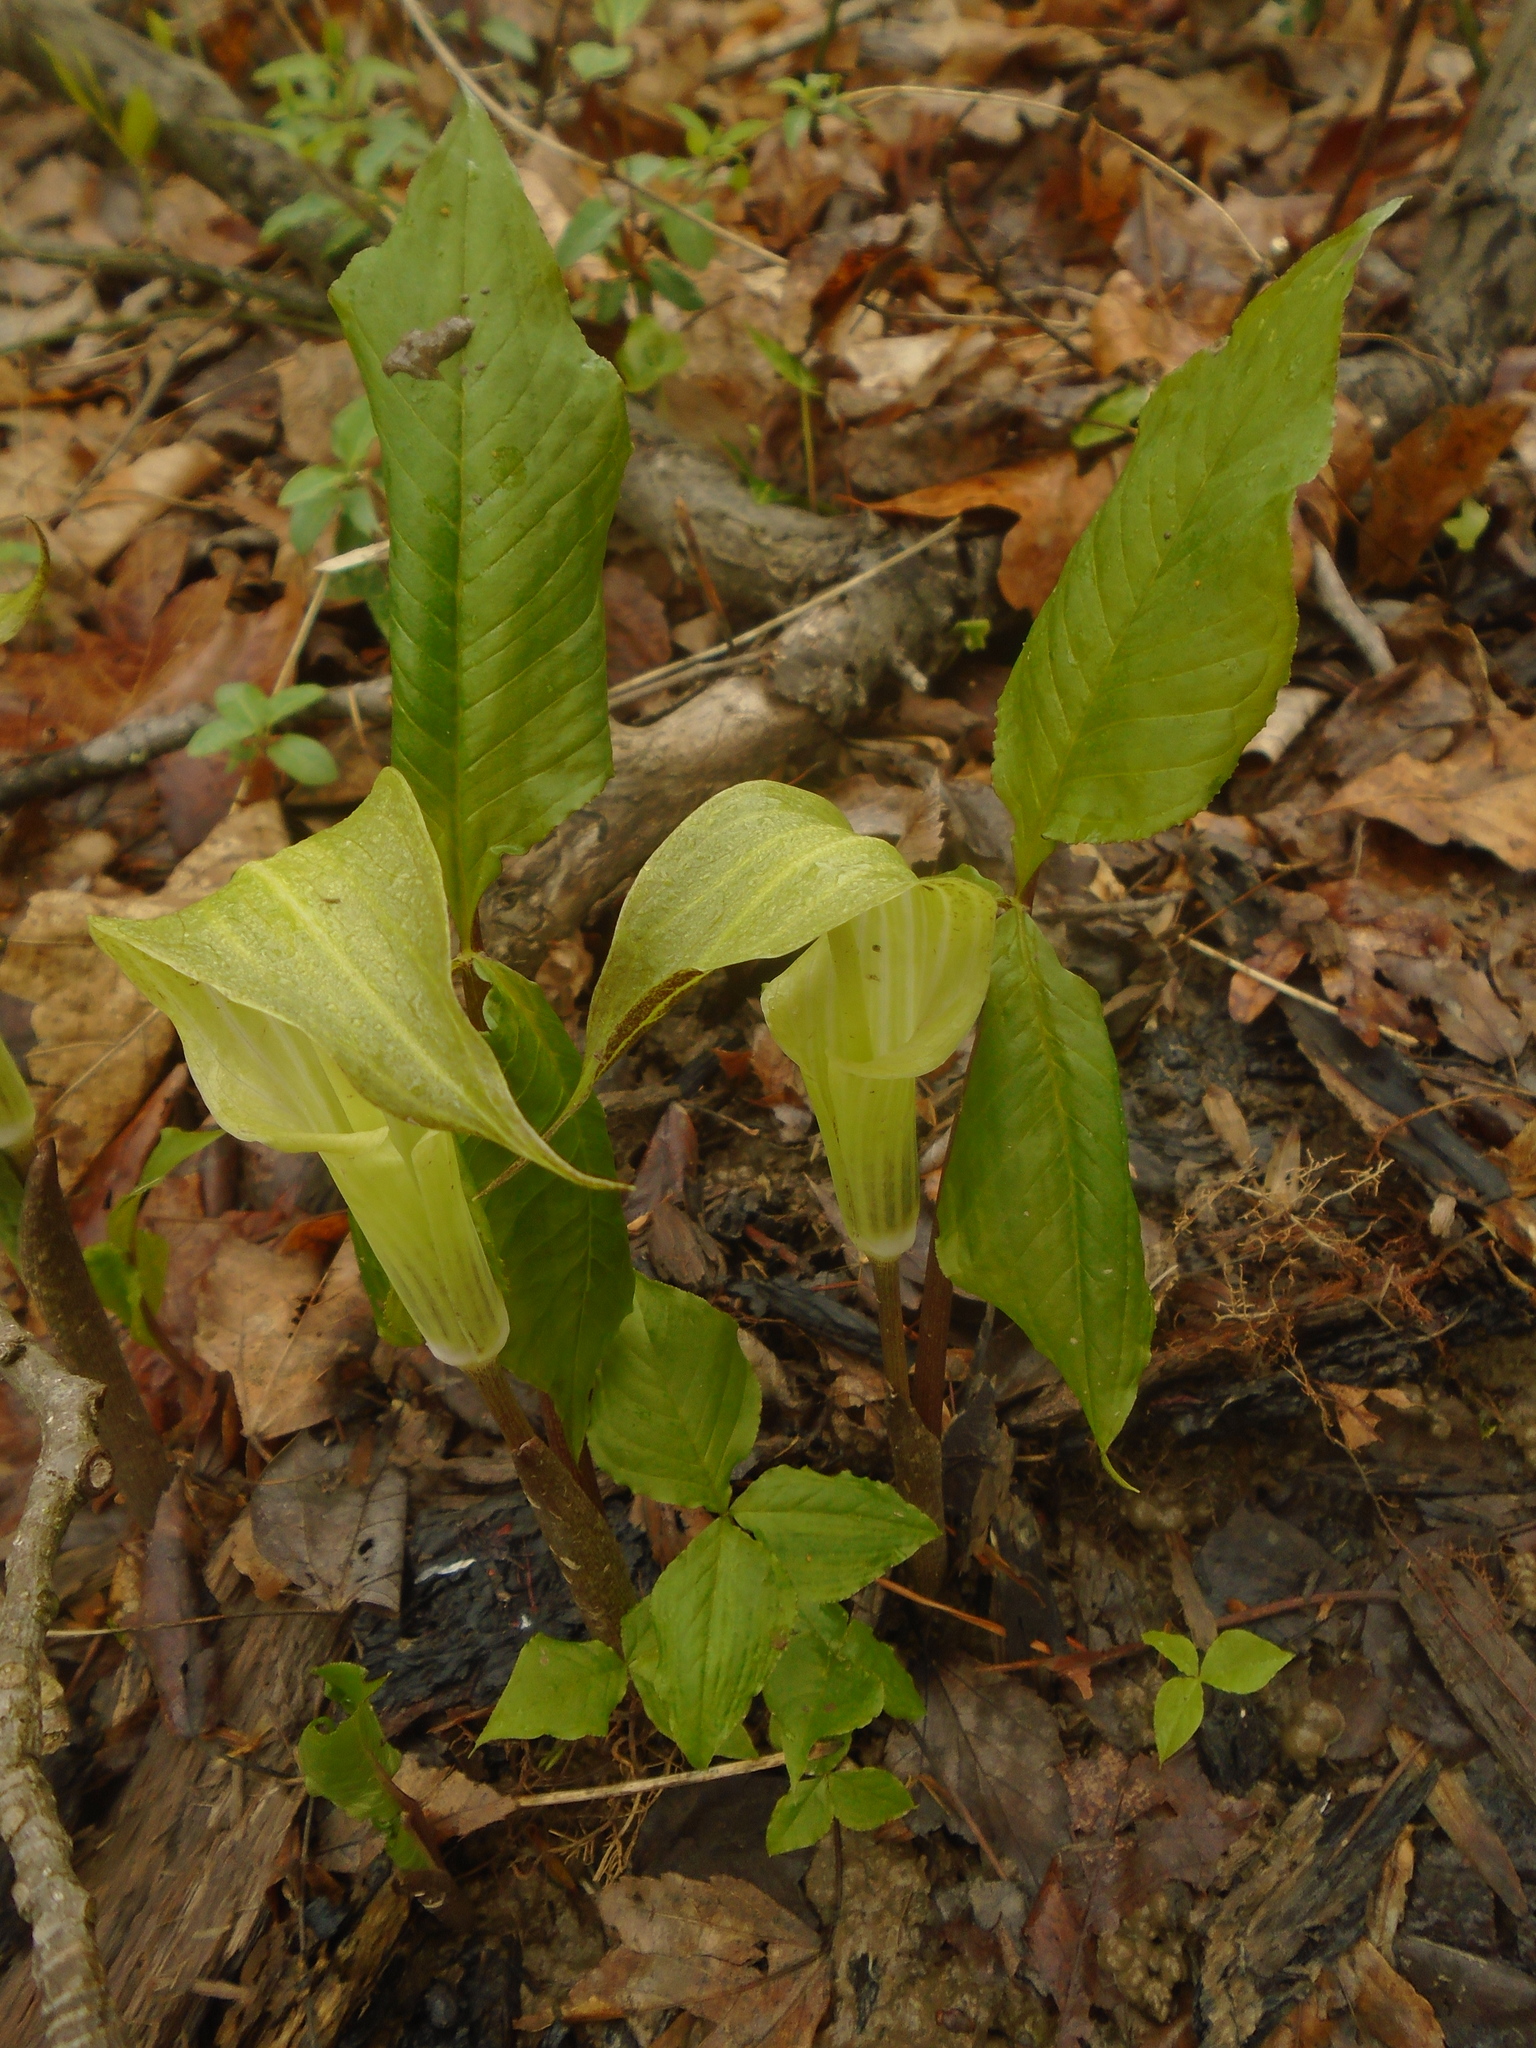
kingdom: Plantae
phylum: Tracheophyta
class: Liliopsida
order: Alismatales
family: Araceae
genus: Arisaema
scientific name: Arisaema triphyllum
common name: Jack-in-the-pulpit
